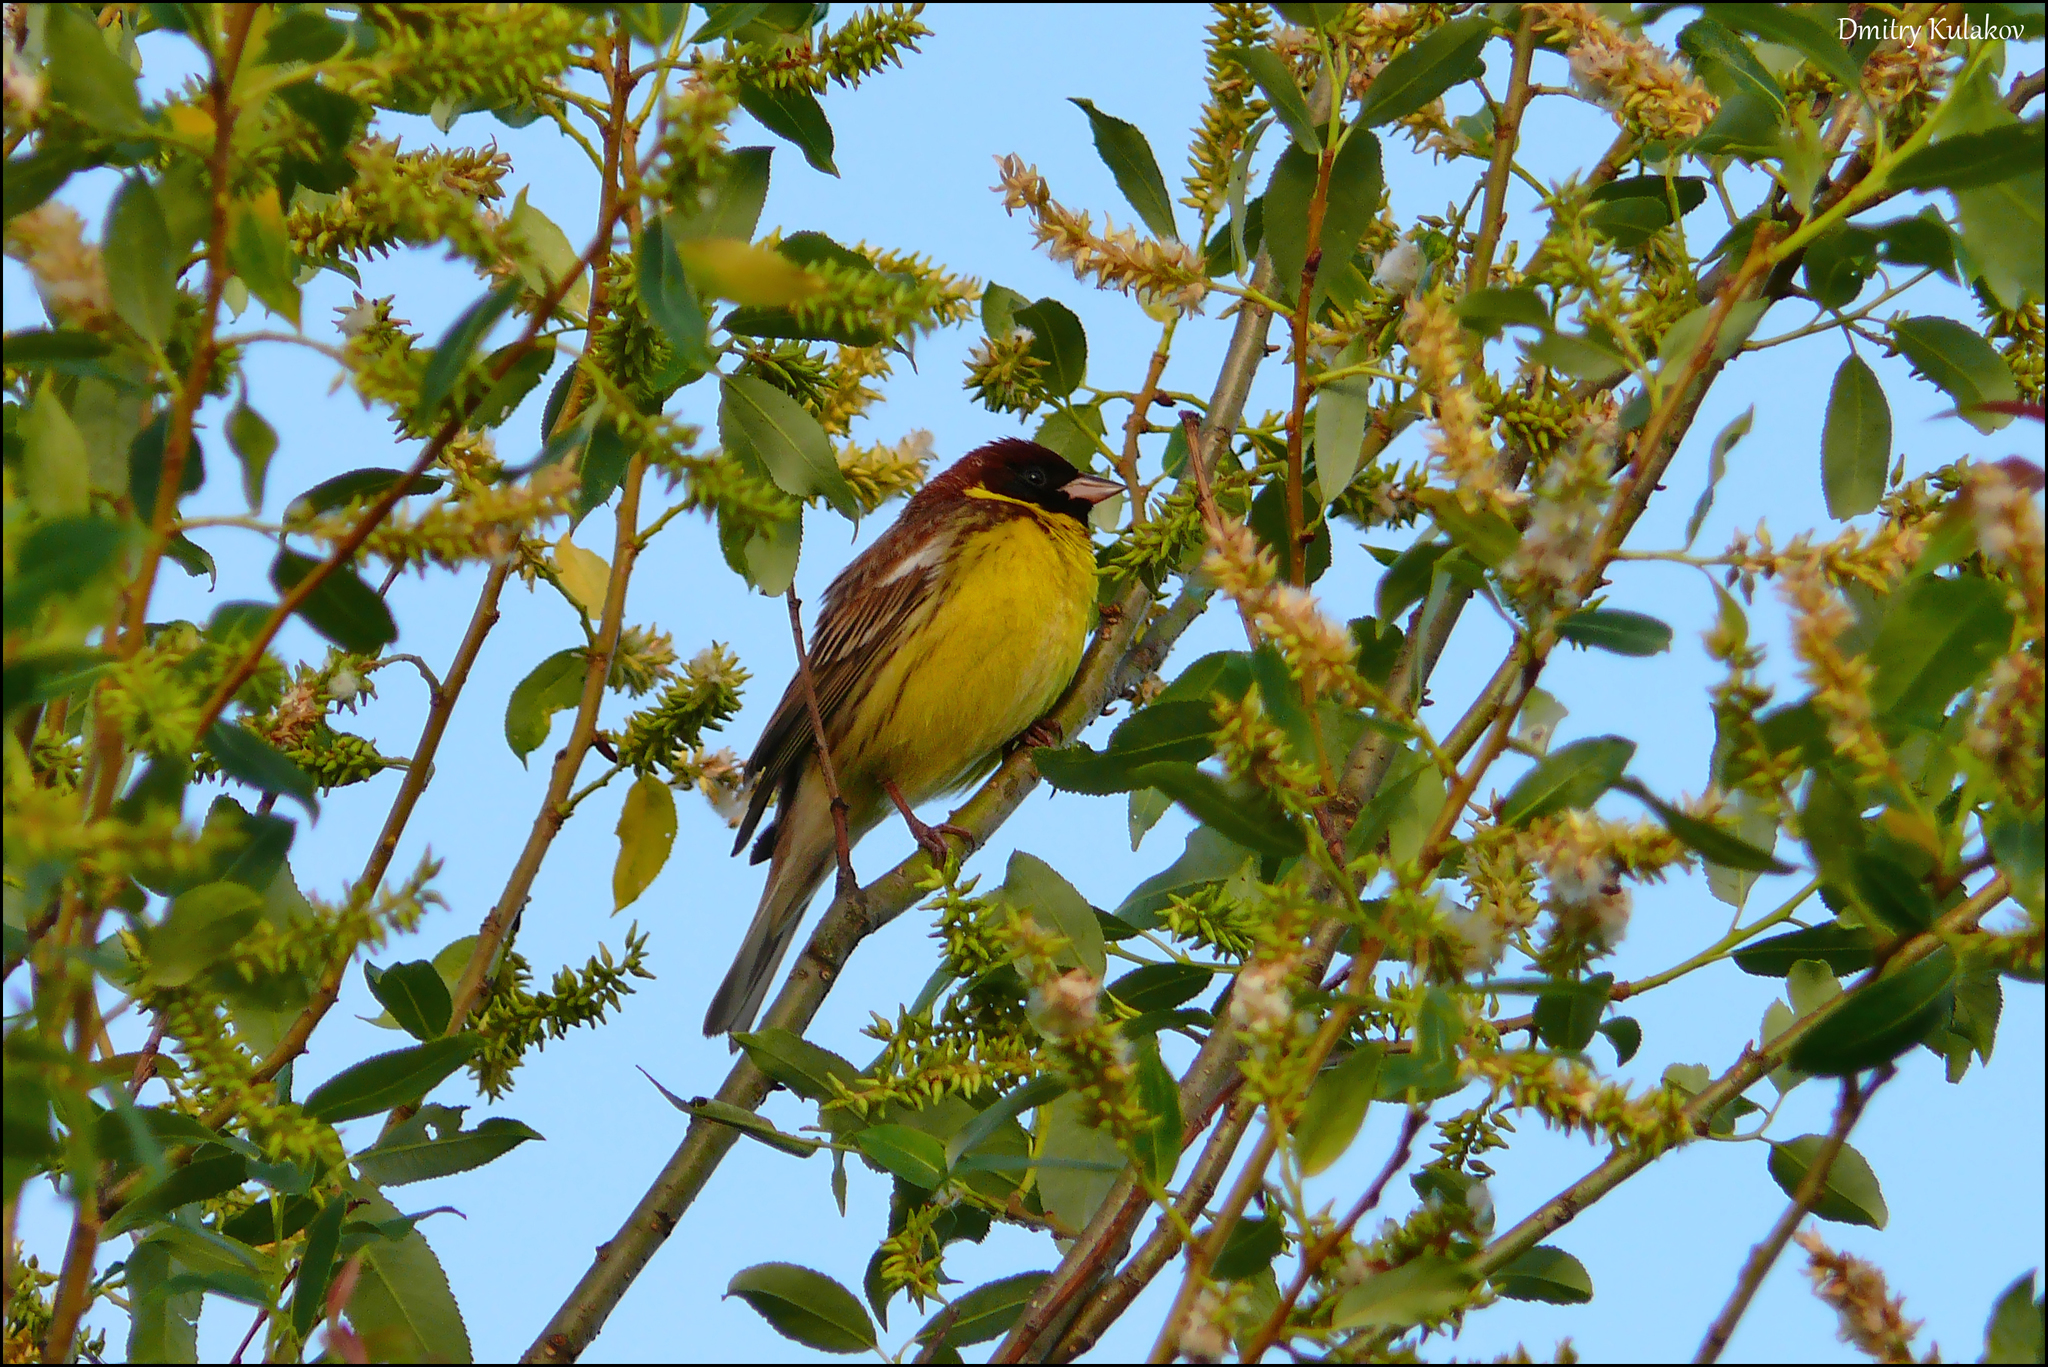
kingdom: Animalia
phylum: Chordata
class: Aves
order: Passeriformes
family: Emberizidae
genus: Emberiza
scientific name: Emberiza aureola
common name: Yellow-breasted bunting
